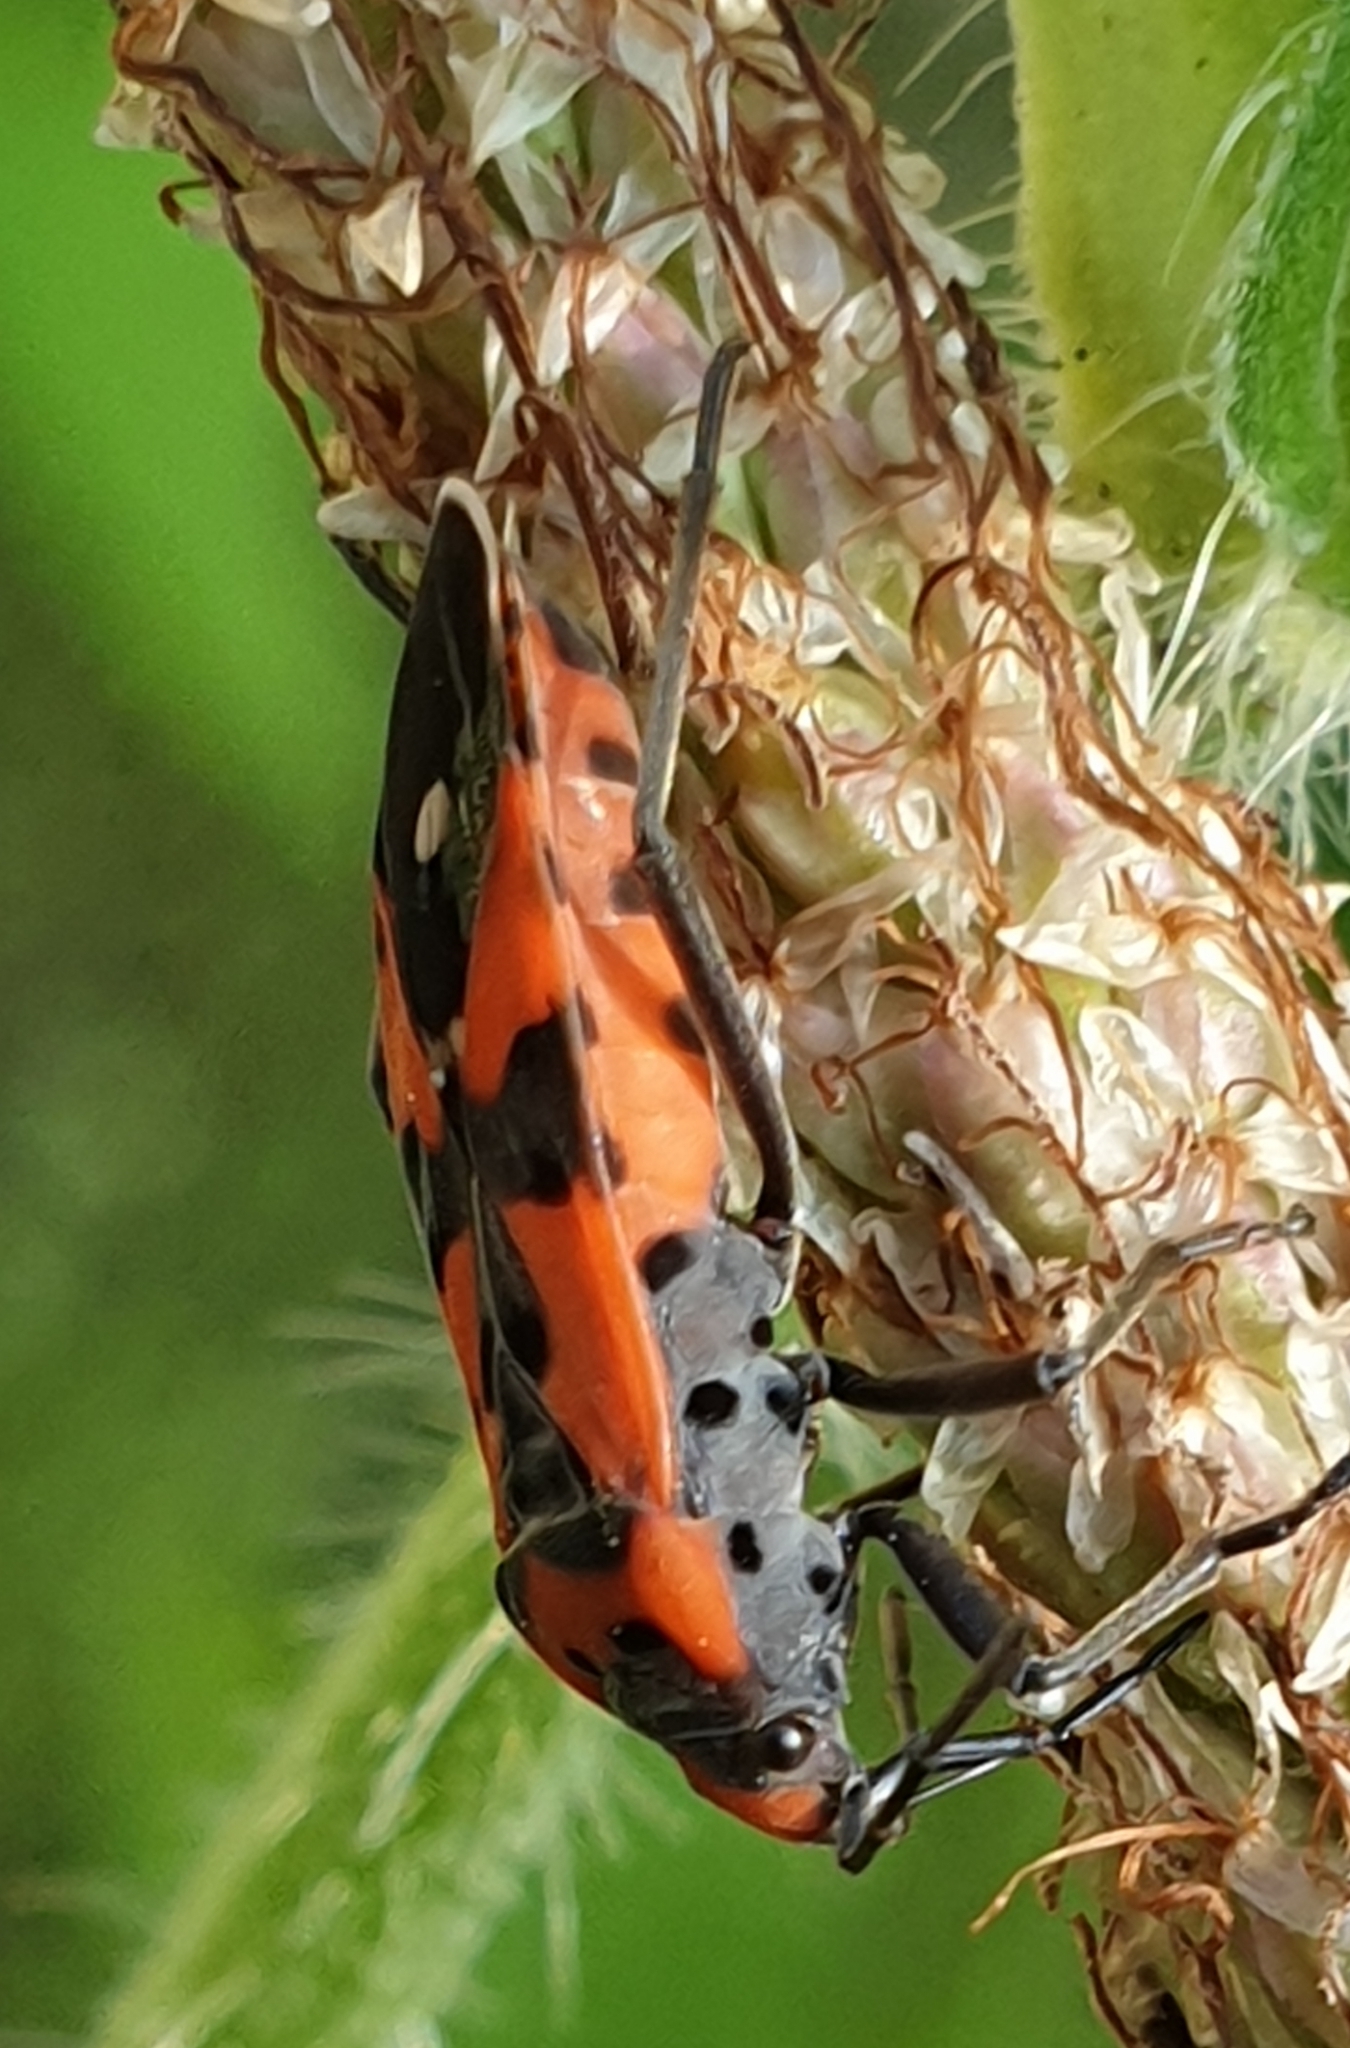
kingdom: Animalia
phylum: Arthropoda
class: Insecta
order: Hemiptera
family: Lygaeidae
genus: Lygaeus
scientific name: Lygaeus equestris
